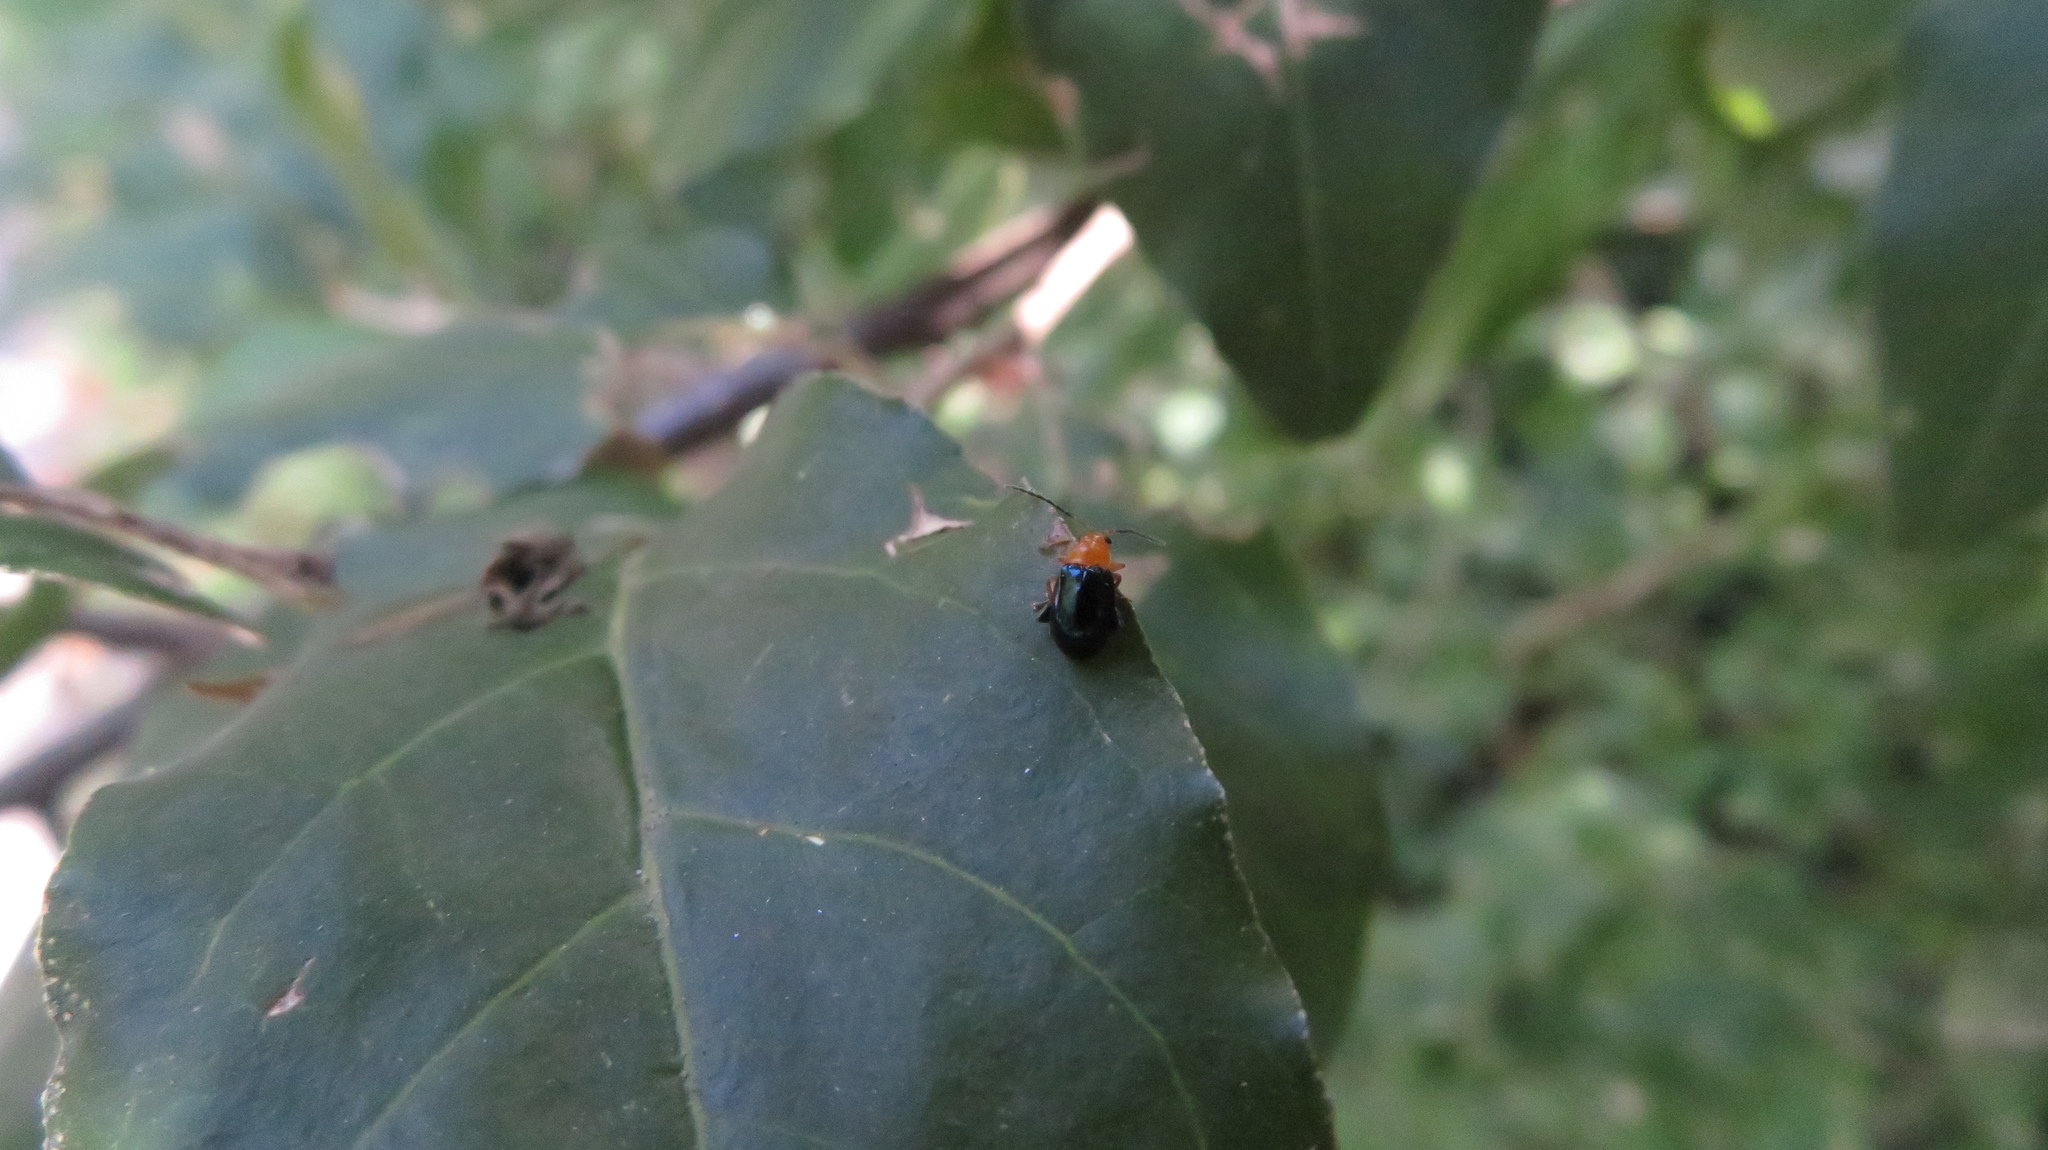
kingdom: Animalia
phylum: Arthropoda
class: Insecta
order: Coleoptera
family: Chrysomelidae
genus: Parchicola
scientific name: Parchicola iris
